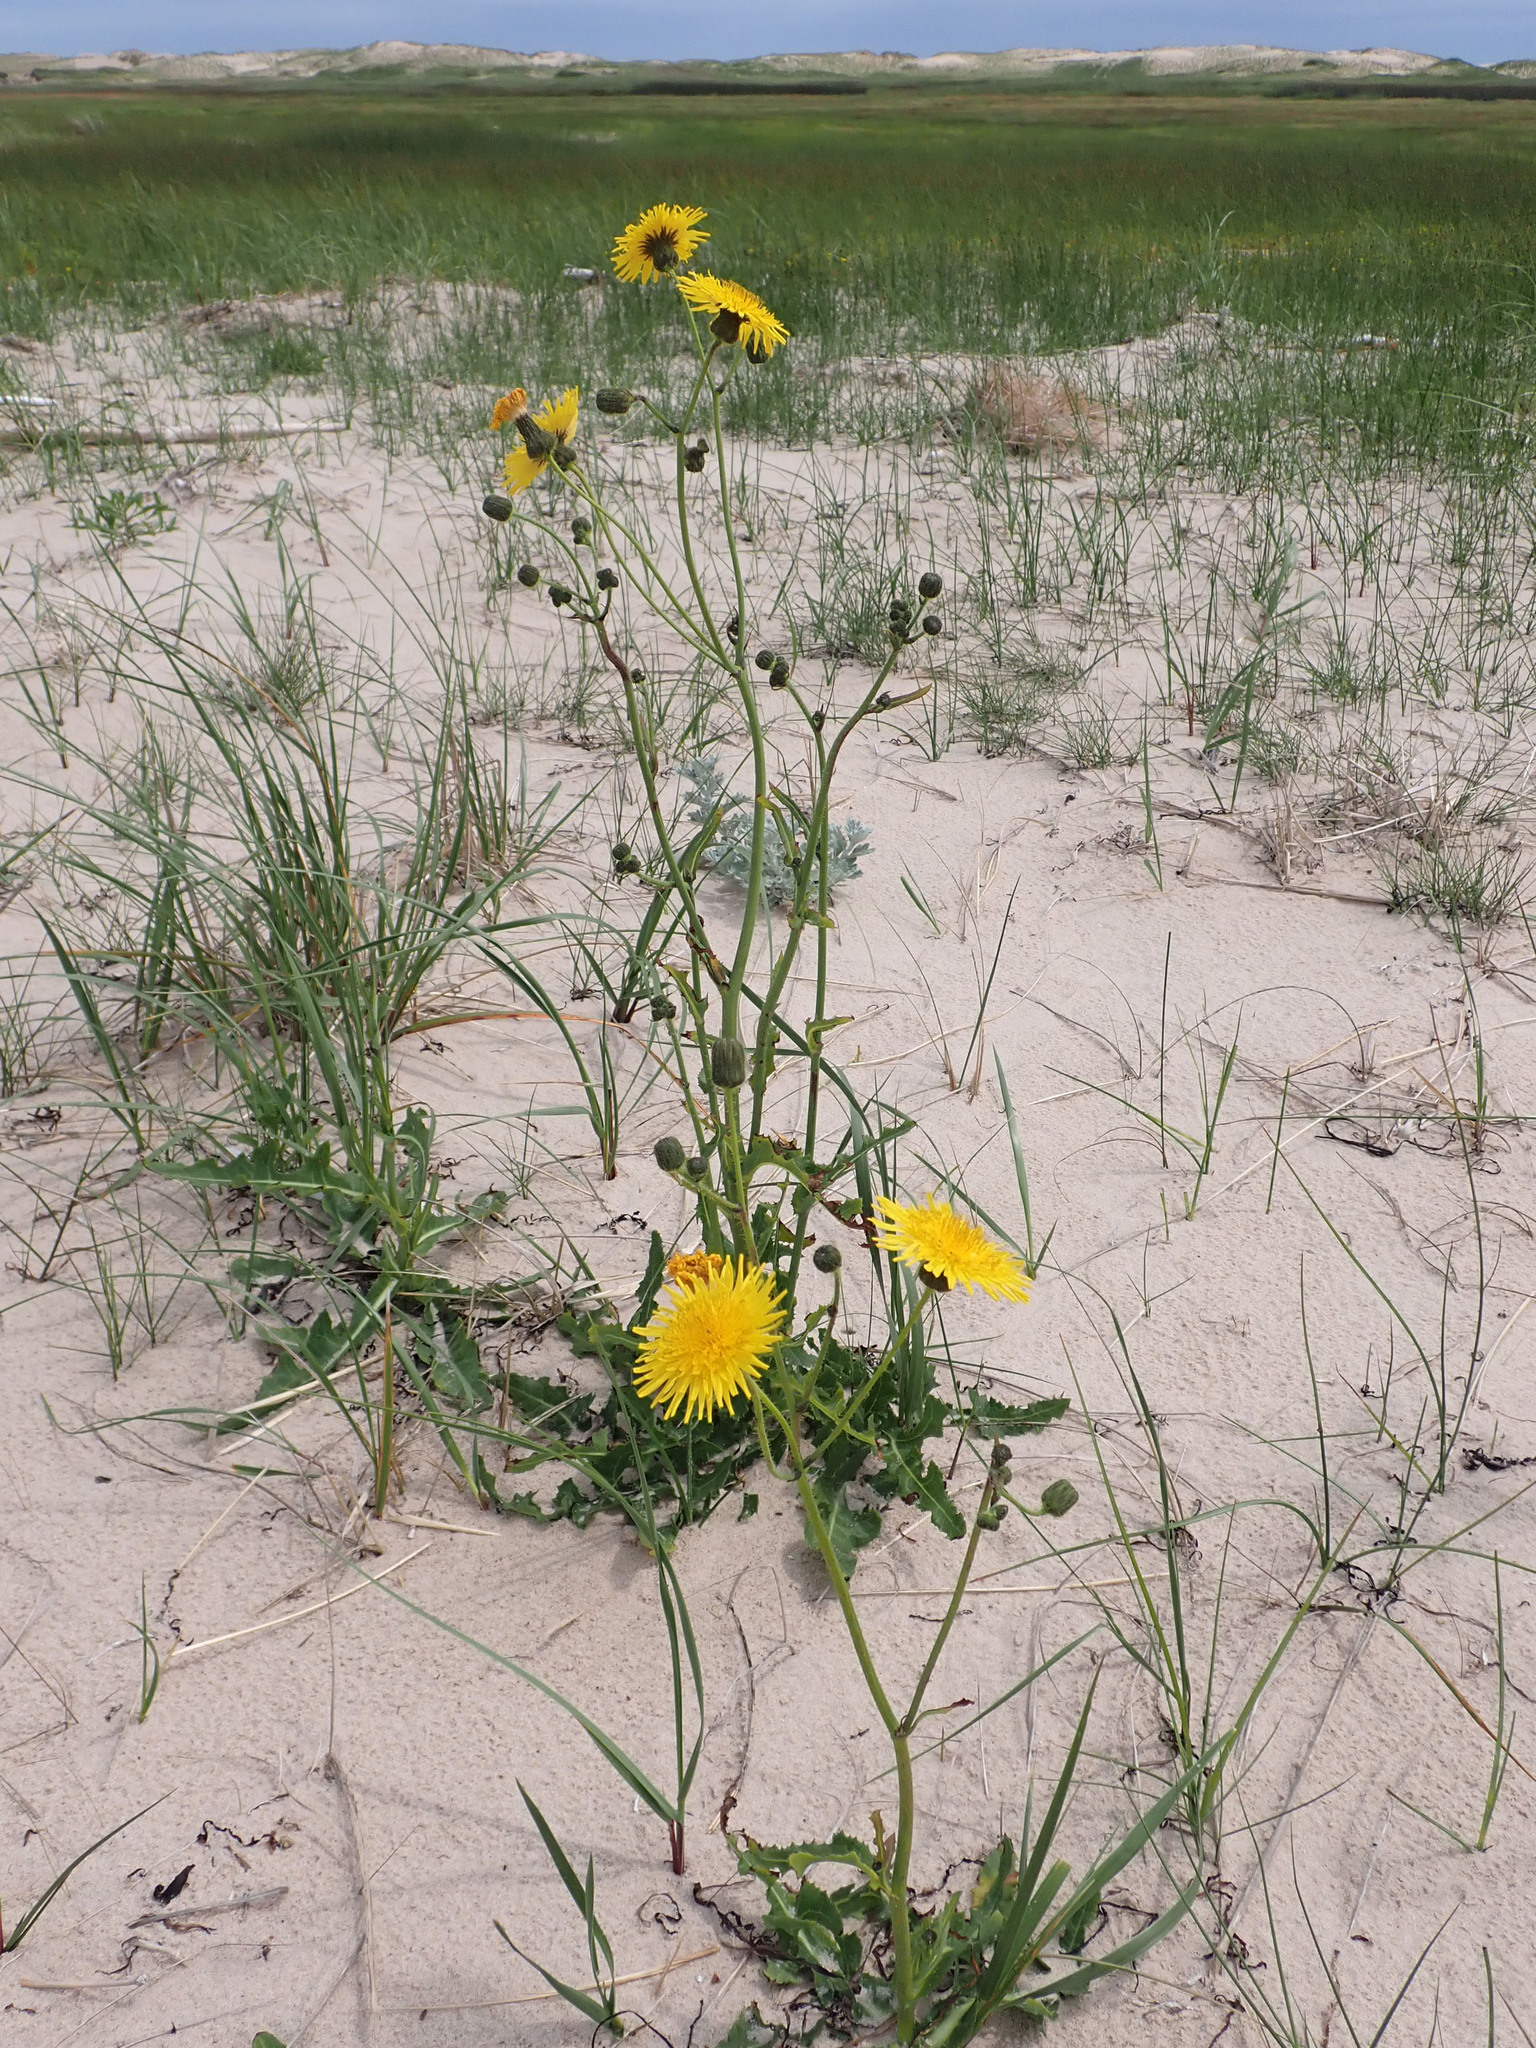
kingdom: Plantae
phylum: Tracheophyta
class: Magnoliopsida
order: Asterales
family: Asteraceae
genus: Sonchus
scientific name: Sonchus arvensis
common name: Perennial sow-thistle
